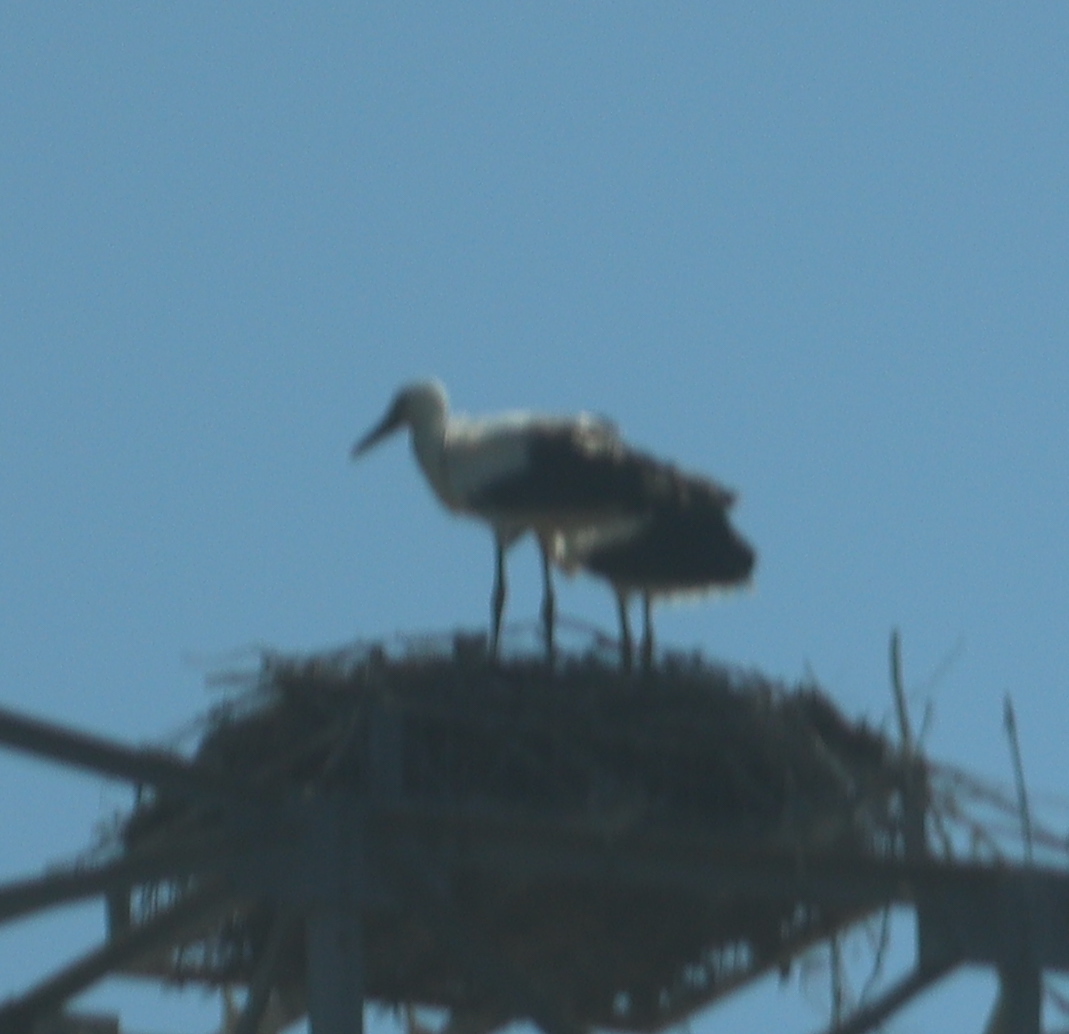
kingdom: Animalia
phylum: Chordata
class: Aves
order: Ciconiiformes
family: Ciconiidae
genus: Ciconia
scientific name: Ciconia ciconia
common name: White stork
